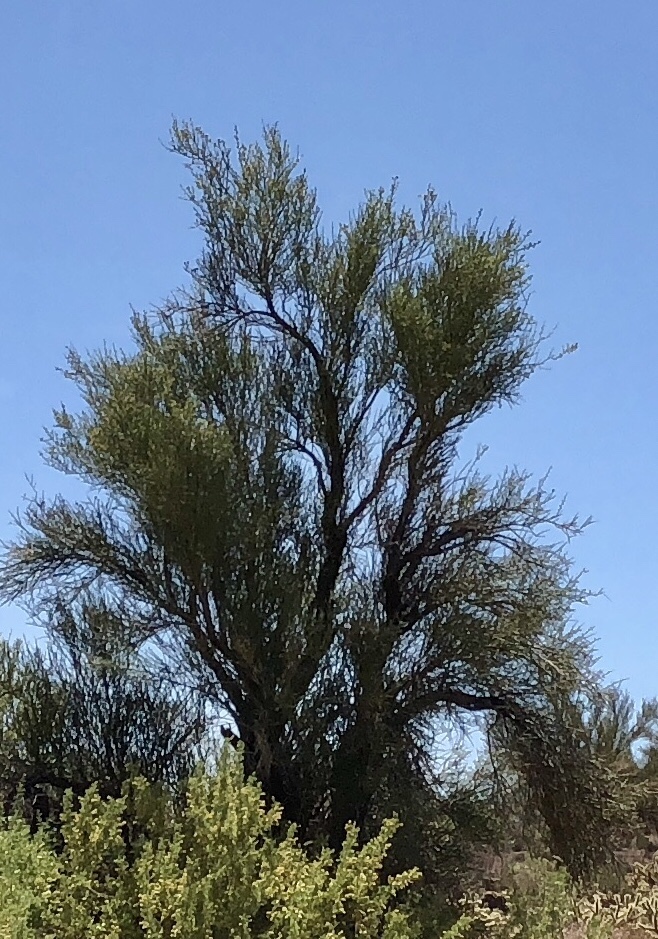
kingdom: Plantae
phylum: Tracheophyta
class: Magnoliopsida
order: Celastrales
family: Celastraceae
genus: Canotia
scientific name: Canotia holacantha
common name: Crucifixion thorns
